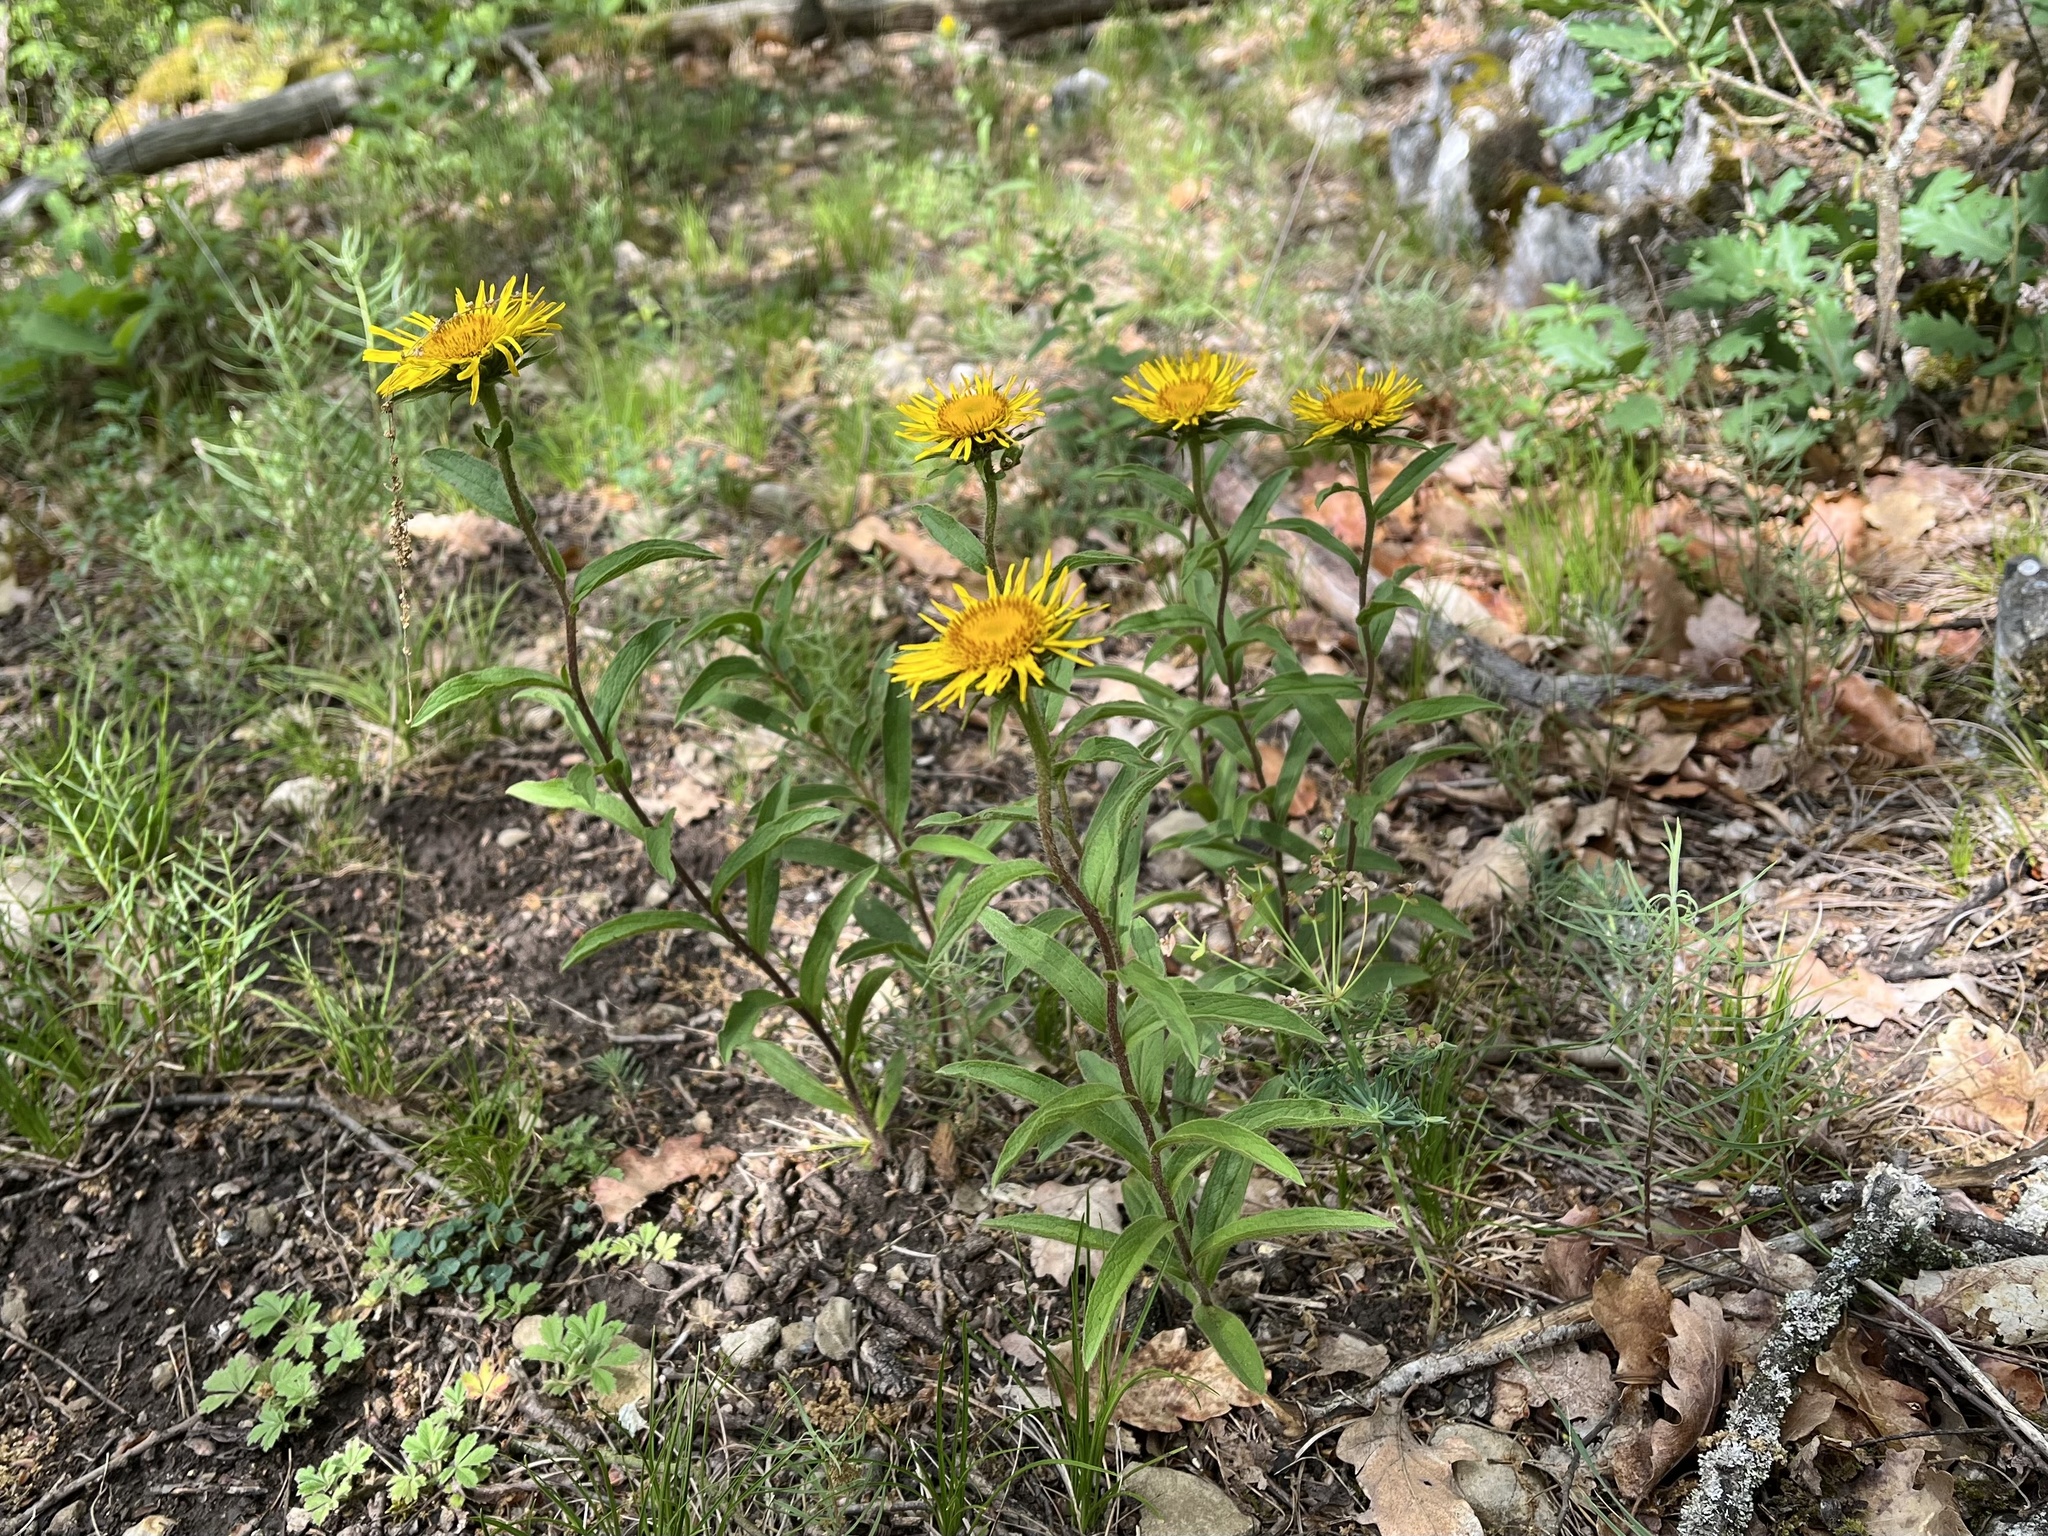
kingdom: Plantae
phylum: Tracheophyta
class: Magnoliopsida
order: Asterales
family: Asteraceae
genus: Pentanema
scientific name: Pentanema hirtum
